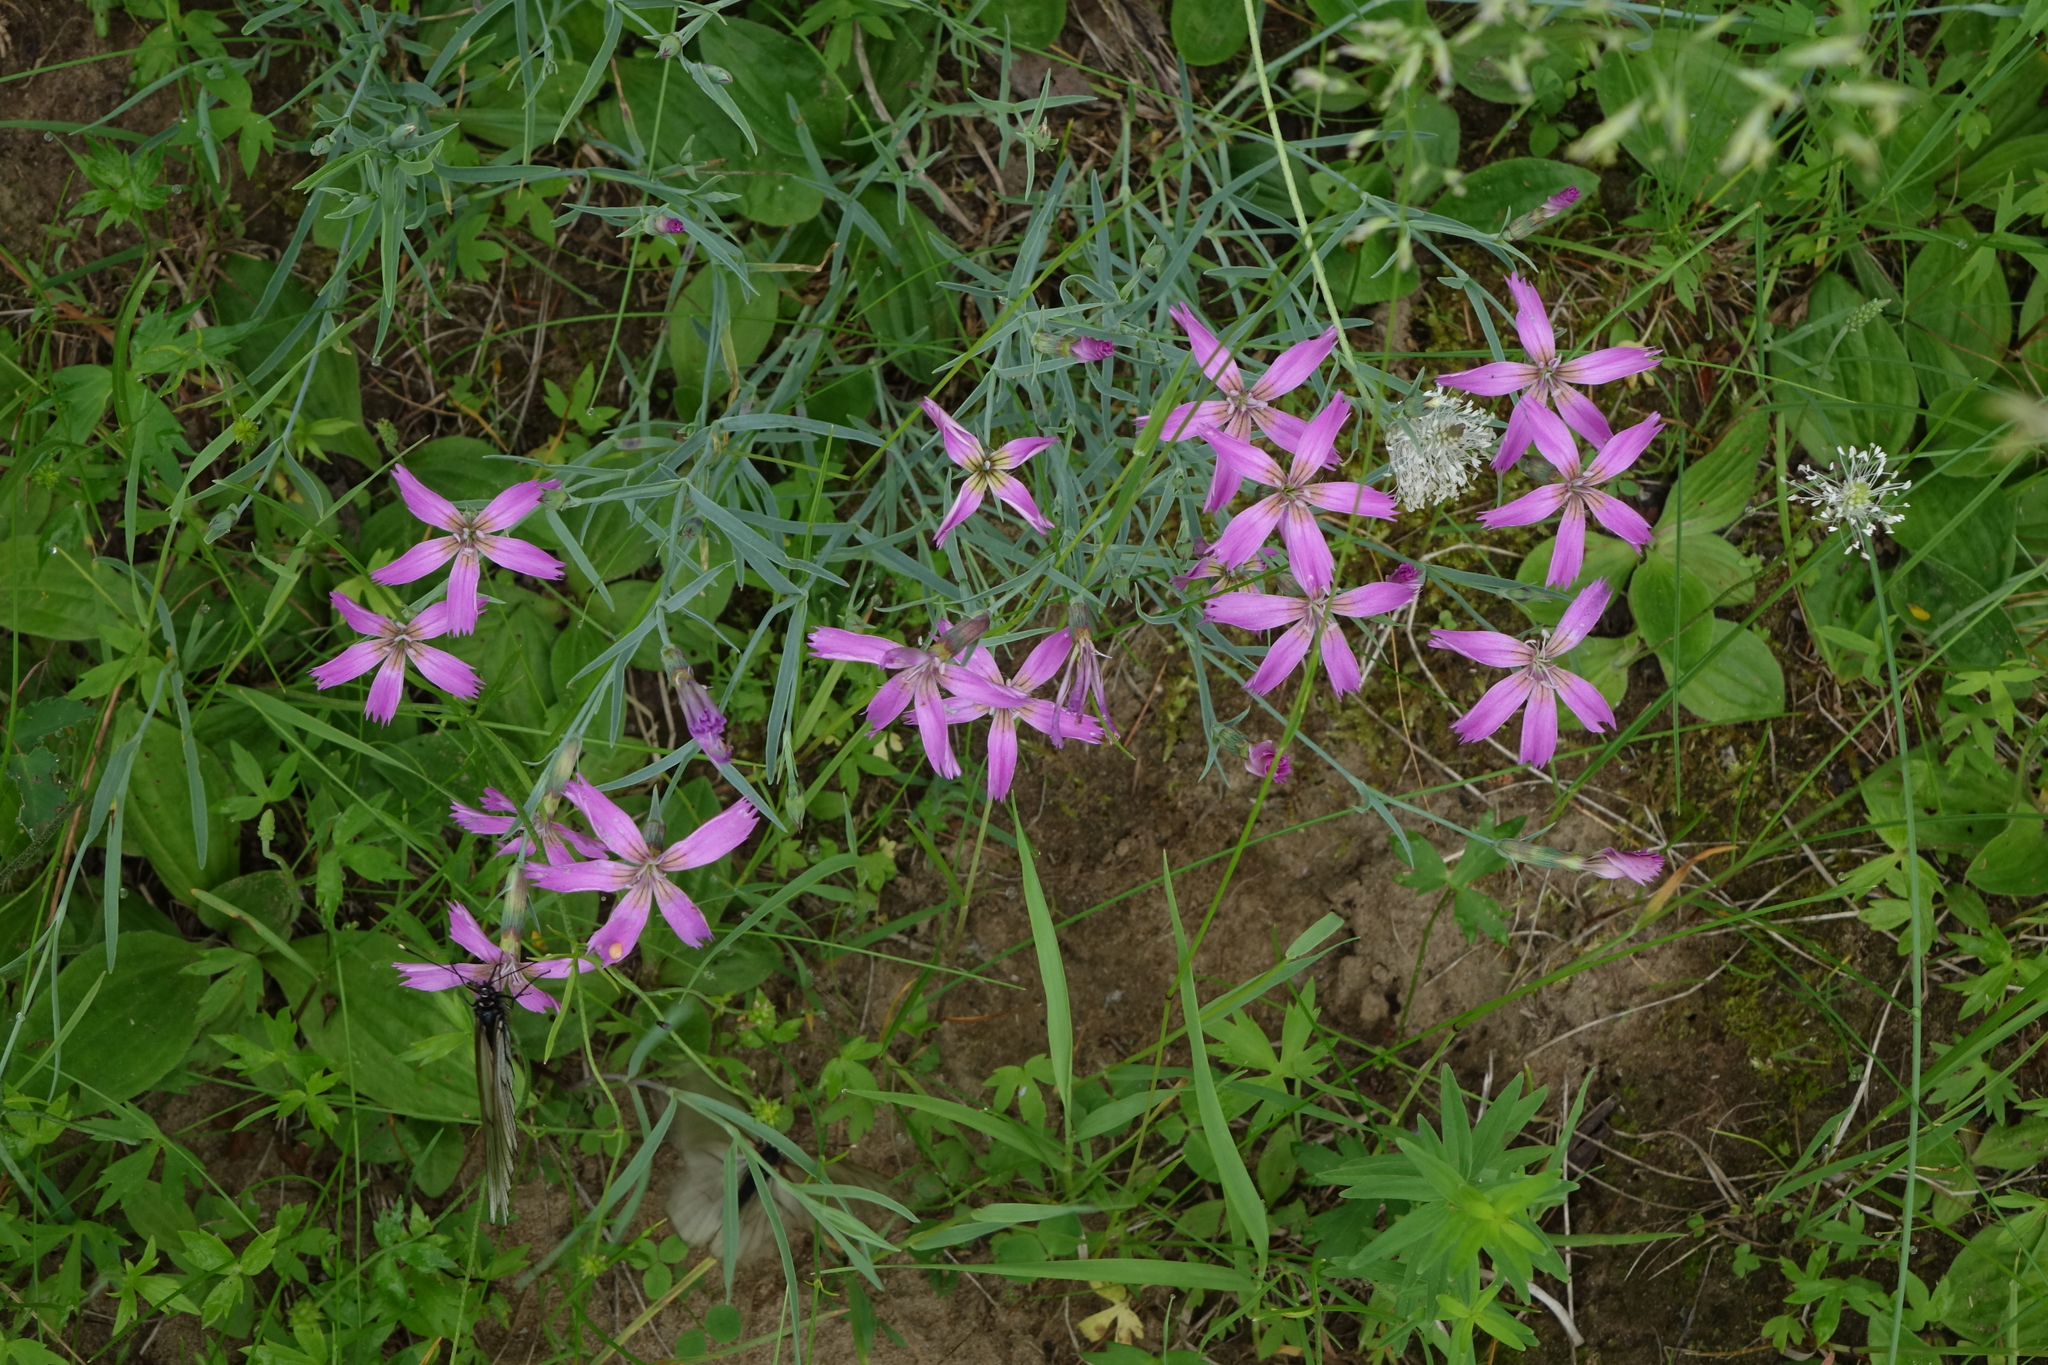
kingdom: Plantae
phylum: Tracheophyta
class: Magnoliopsida
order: Caryophyllales
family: Caryophyllaceae
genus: Dianthus
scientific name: Dianthus repens
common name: Northern pink
